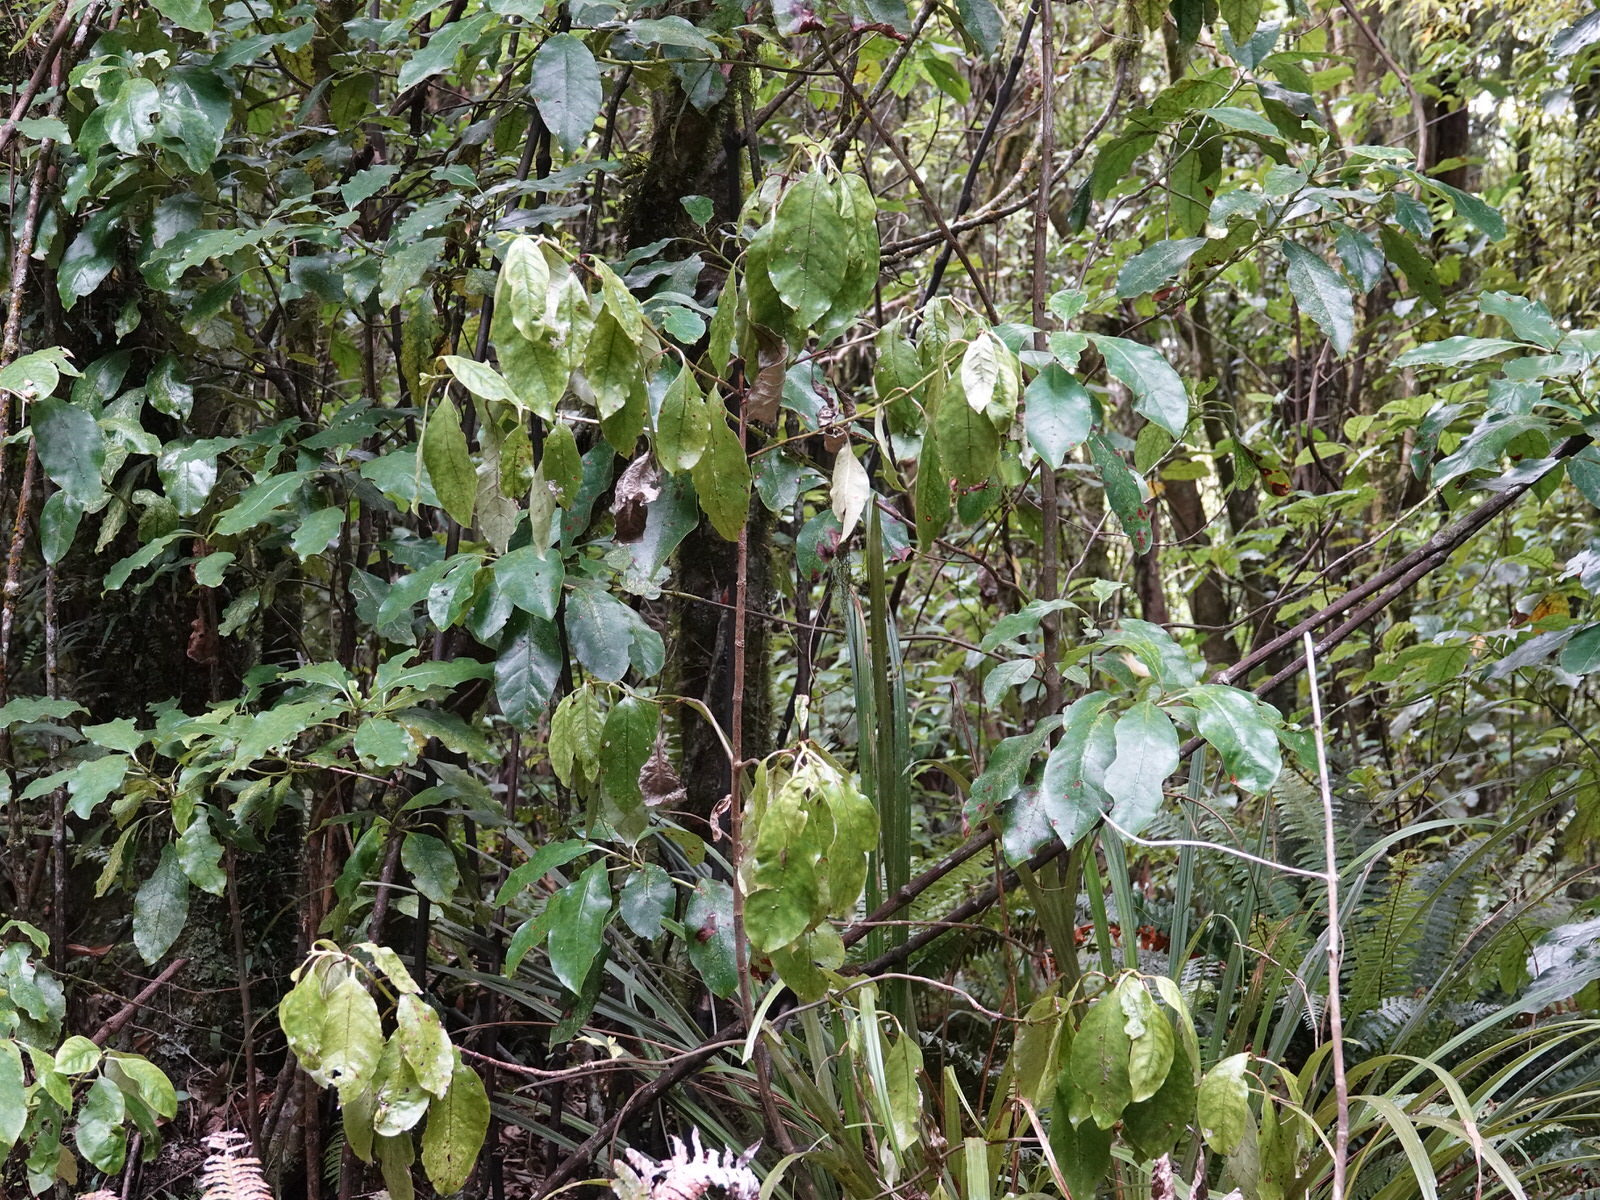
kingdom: Plantae
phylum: Tracheophyta
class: Magnoliopsida
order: Gentianales
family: Rubiaceae
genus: Coprosma
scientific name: Coprosma autumnalis
